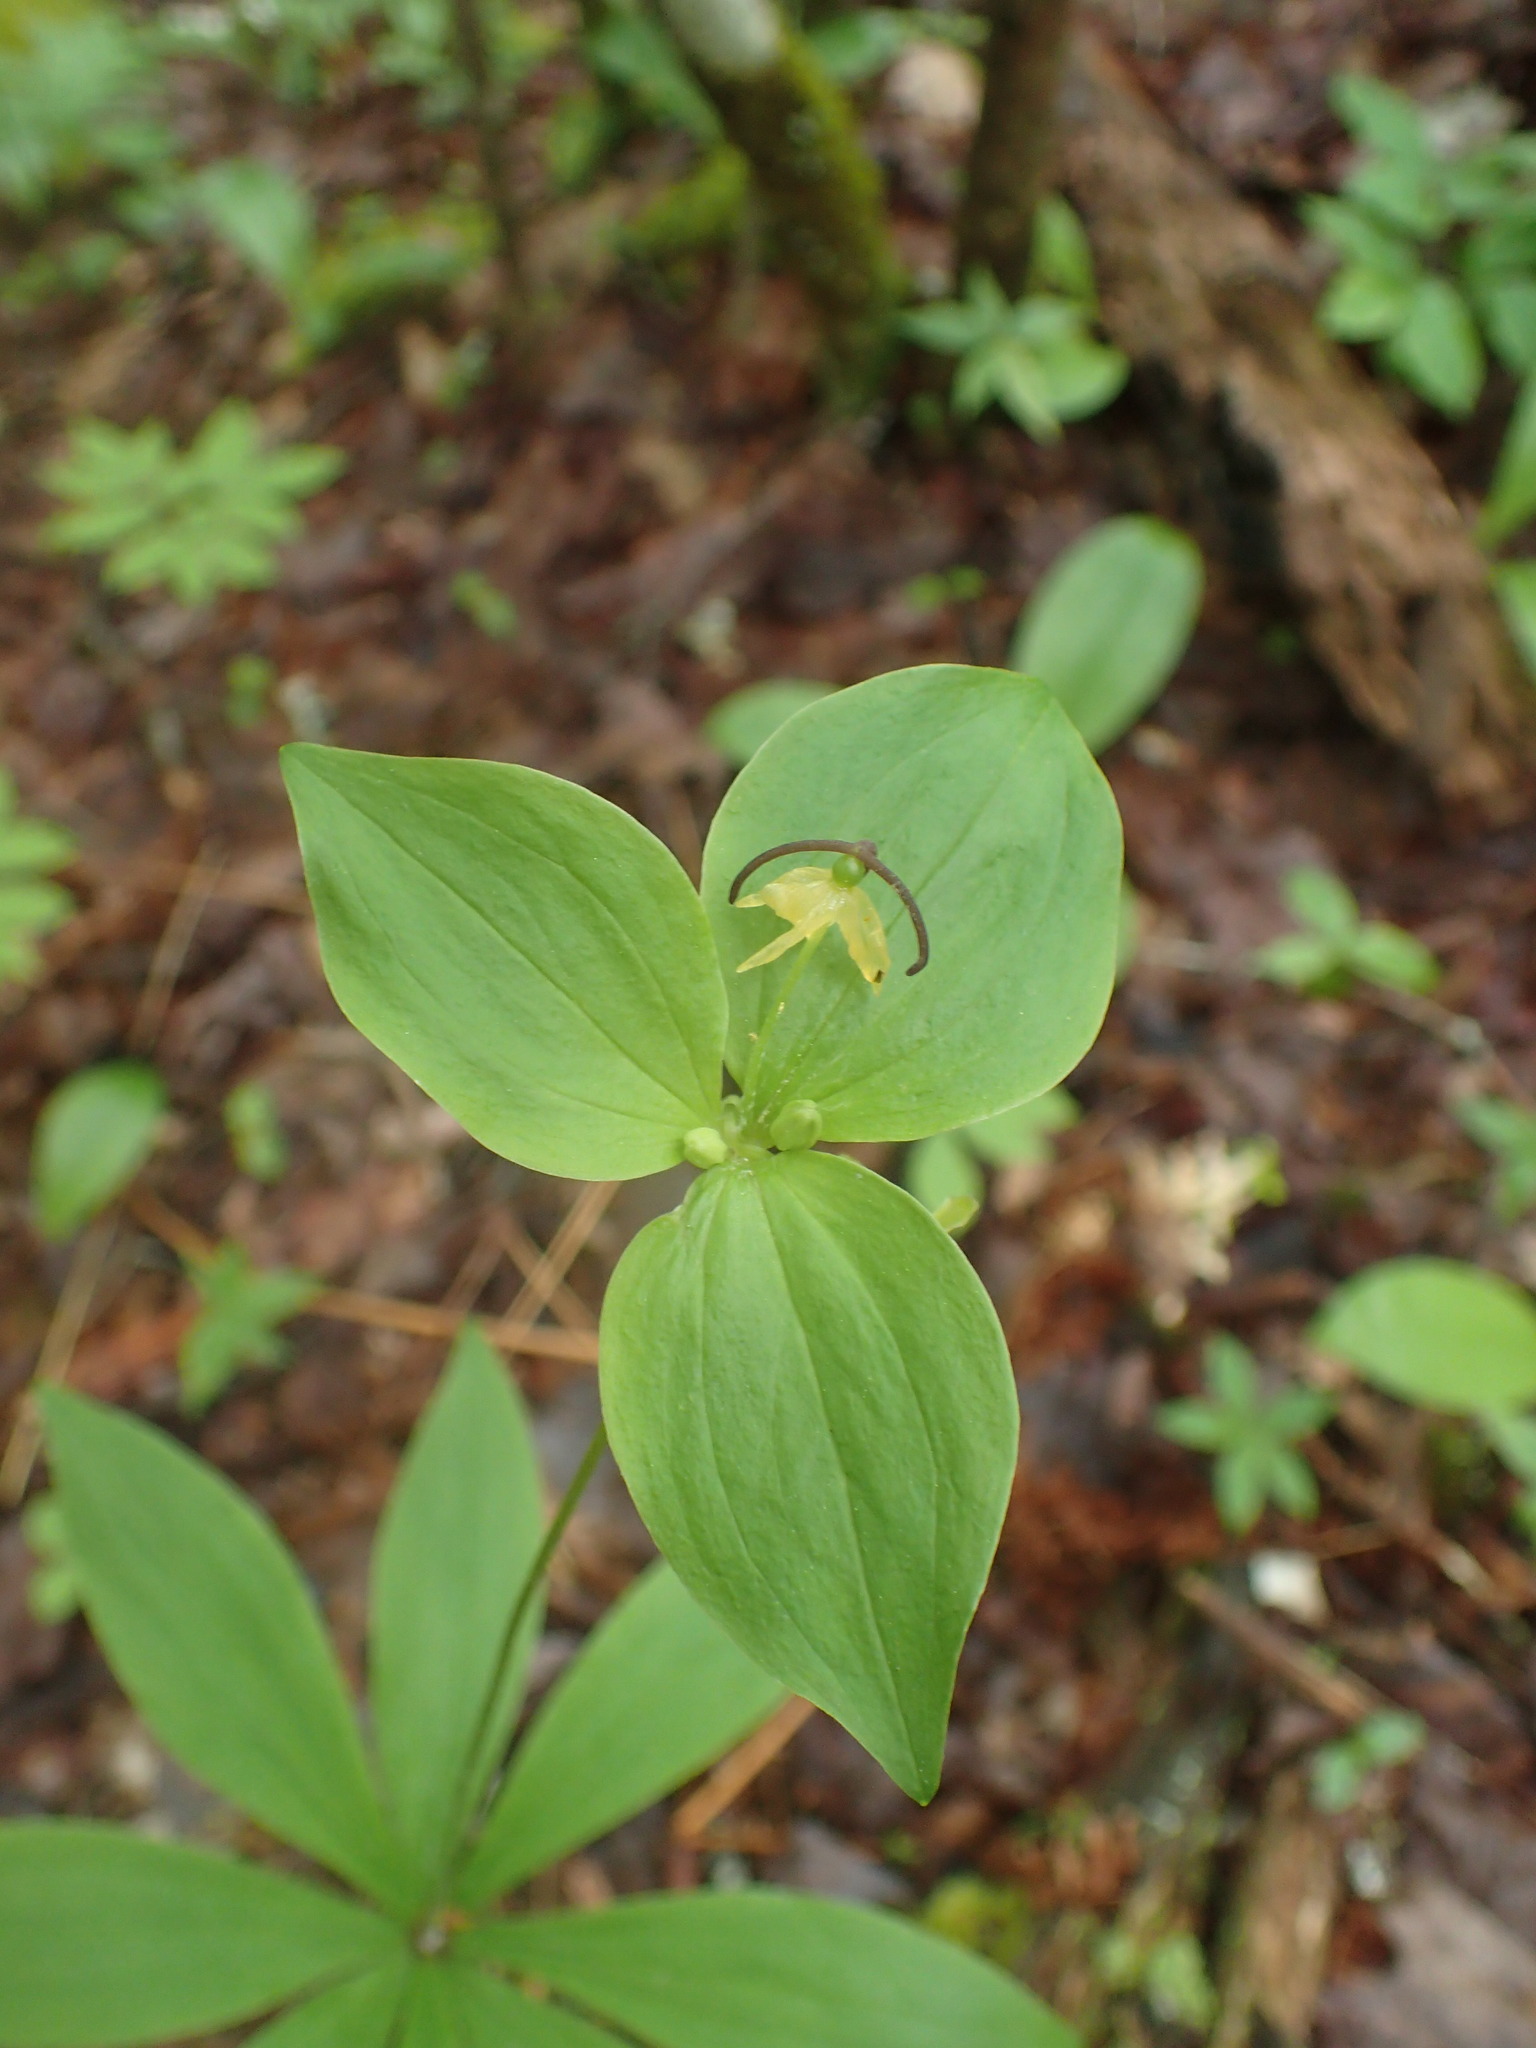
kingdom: Plantae
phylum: Tracheophyta
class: Liliopsida
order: Liliales
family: Liliaceae
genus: Medeola
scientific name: Medeola virginiana
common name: Indian cucumber-root
